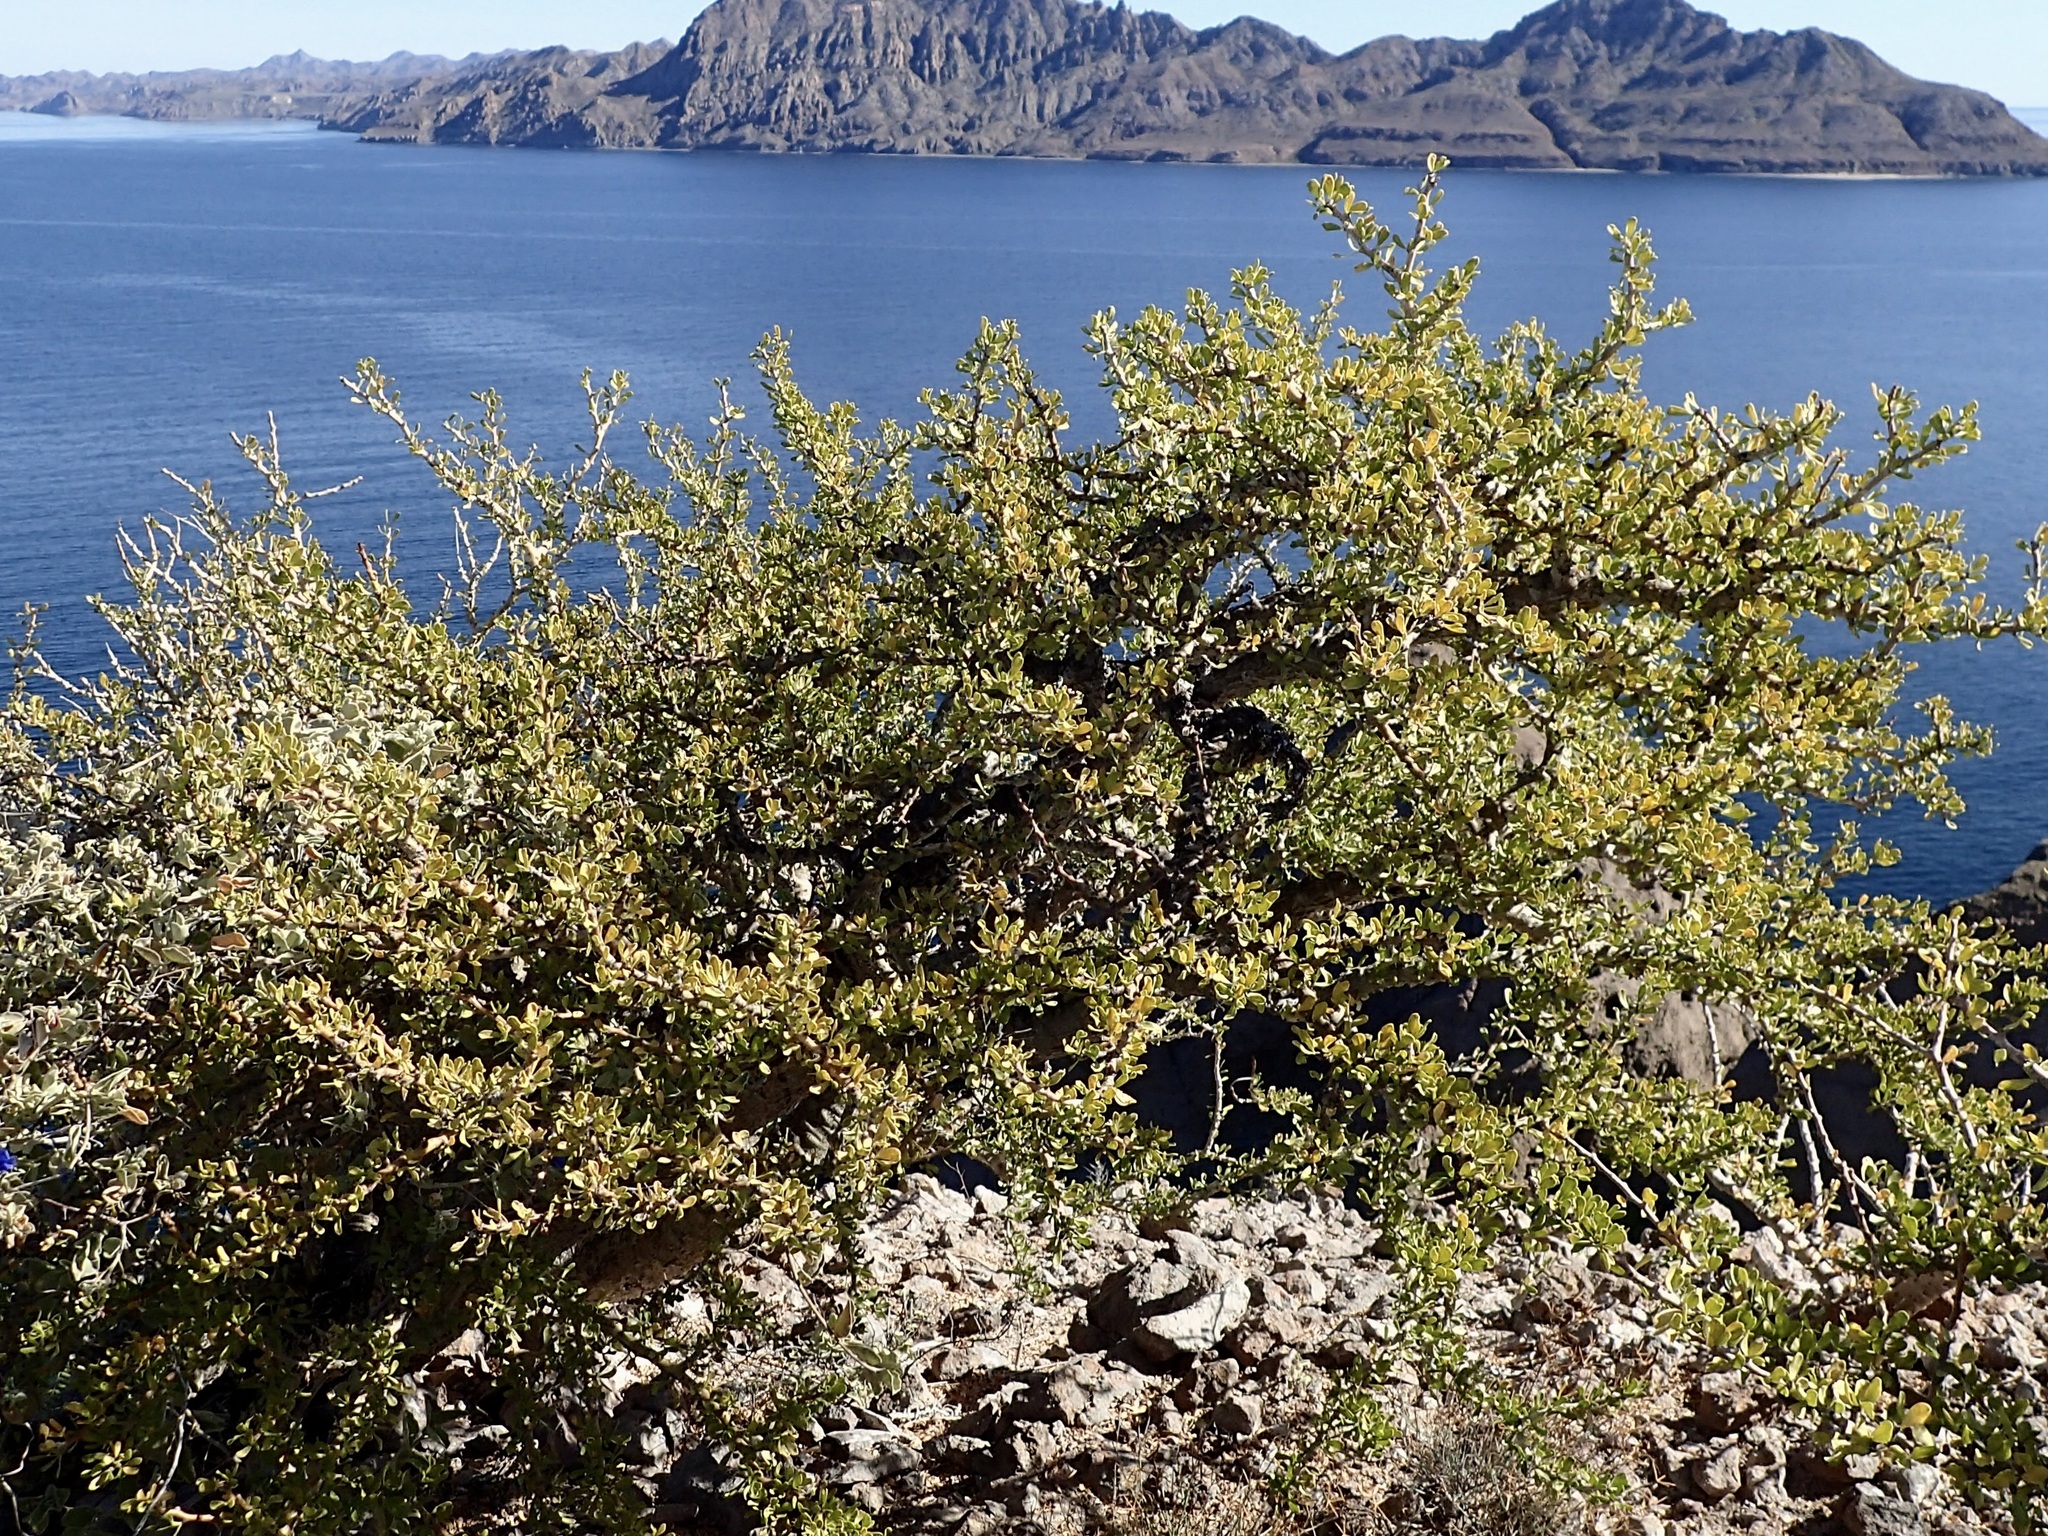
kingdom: Plantae
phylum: Tracheophyta
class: Magnoliopsida
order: Malpighiales
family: Euphorbiaceae
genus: Jatropha
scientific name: Jatropha cuneata
